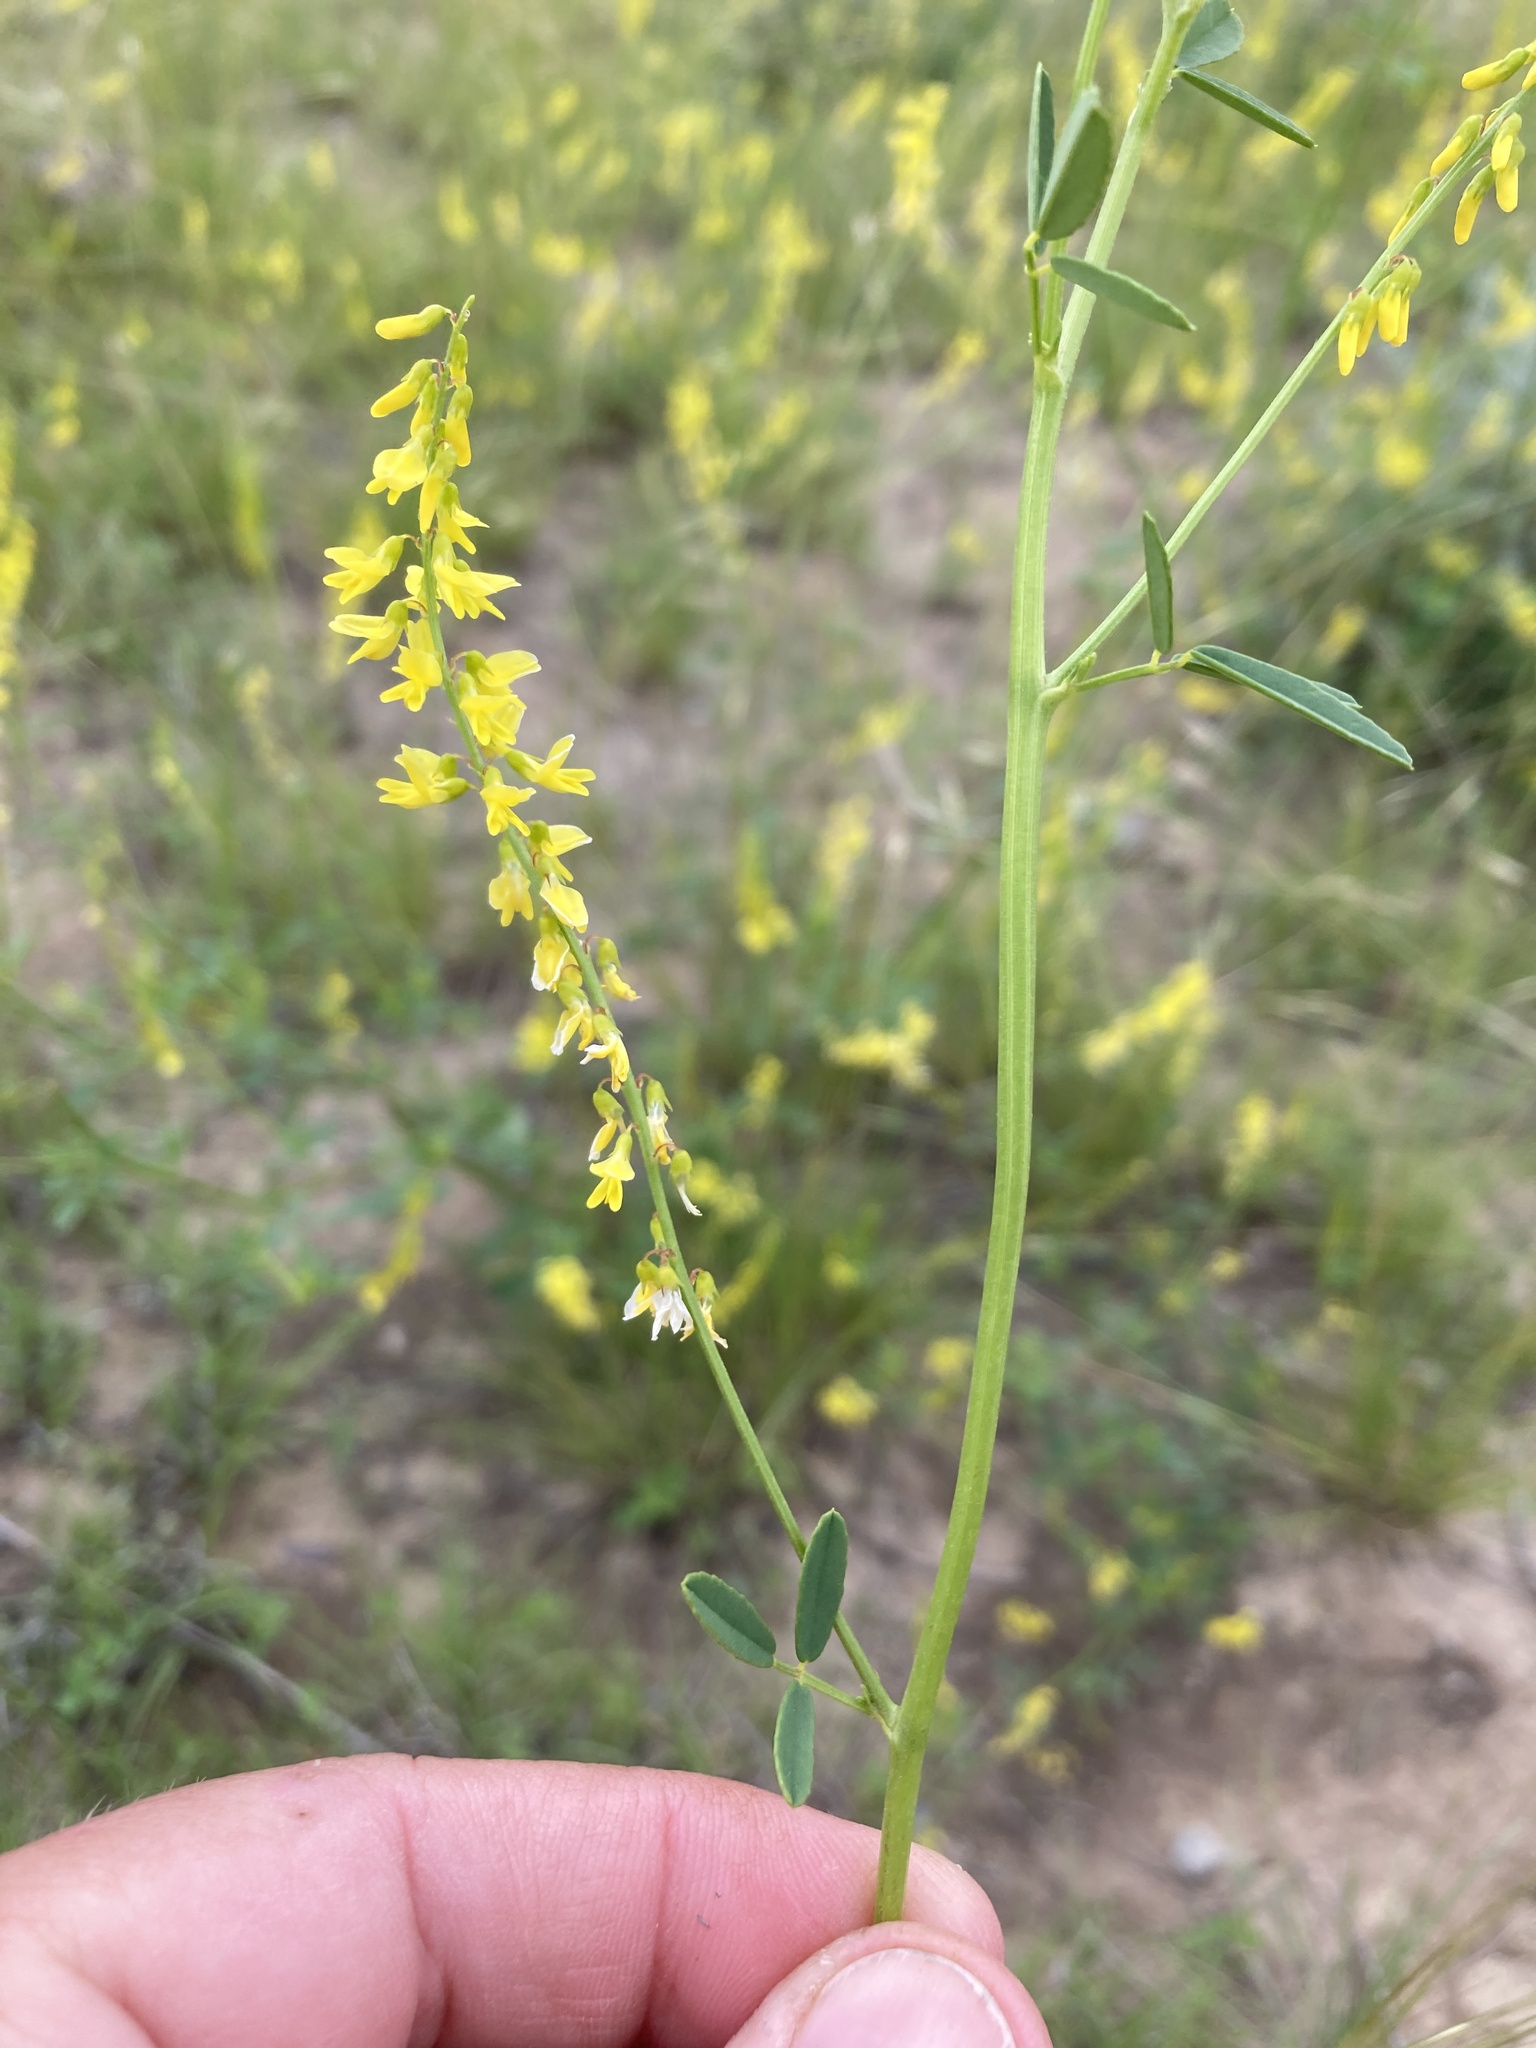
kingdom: Plantae
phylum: Tracheophyta
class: Magnoliopsida
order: Fabales
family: Fabaceae
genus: Melilotus
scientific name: Melilotus officinalis
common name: Sweetclover
